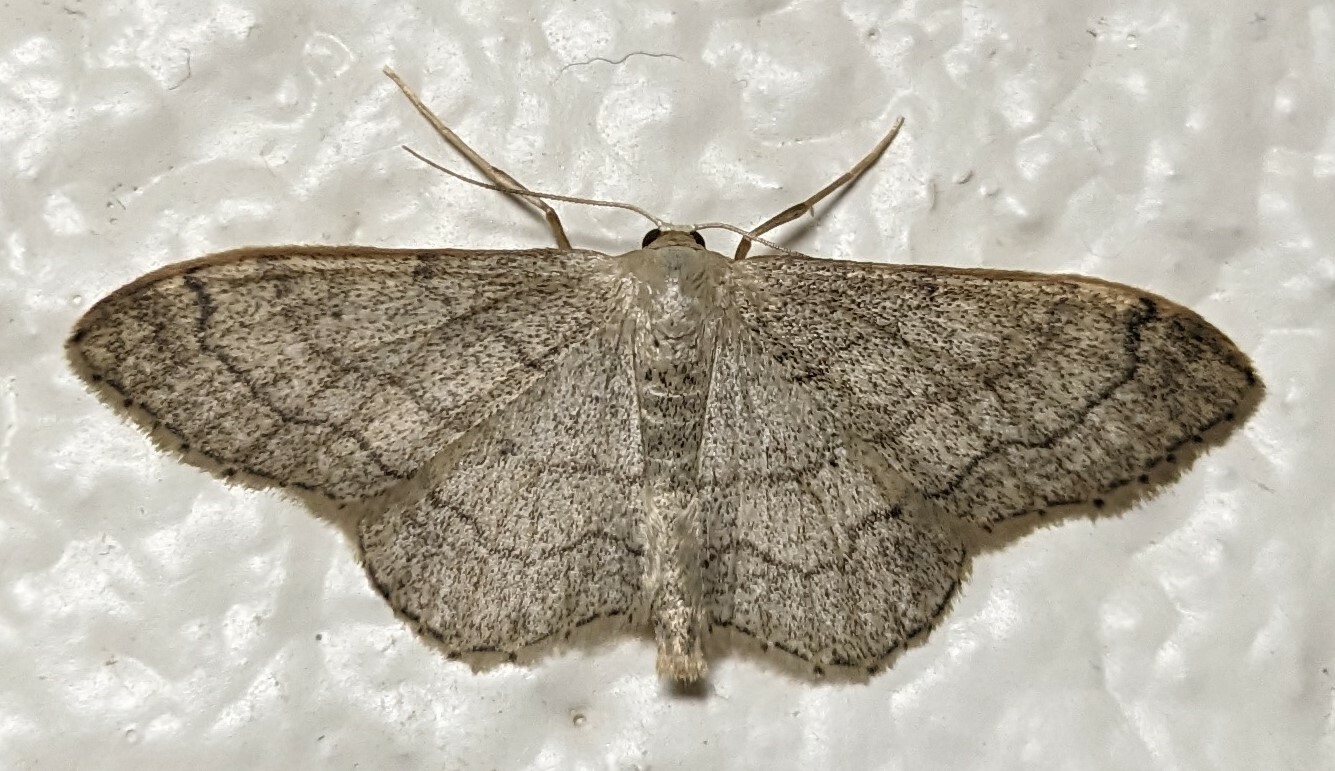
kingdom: Animalia
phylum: Arthropoda
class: Insecta
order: Lepidoptera
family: Geometridae
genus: Idaea
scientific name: Idaea aversata
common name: Riband wave
